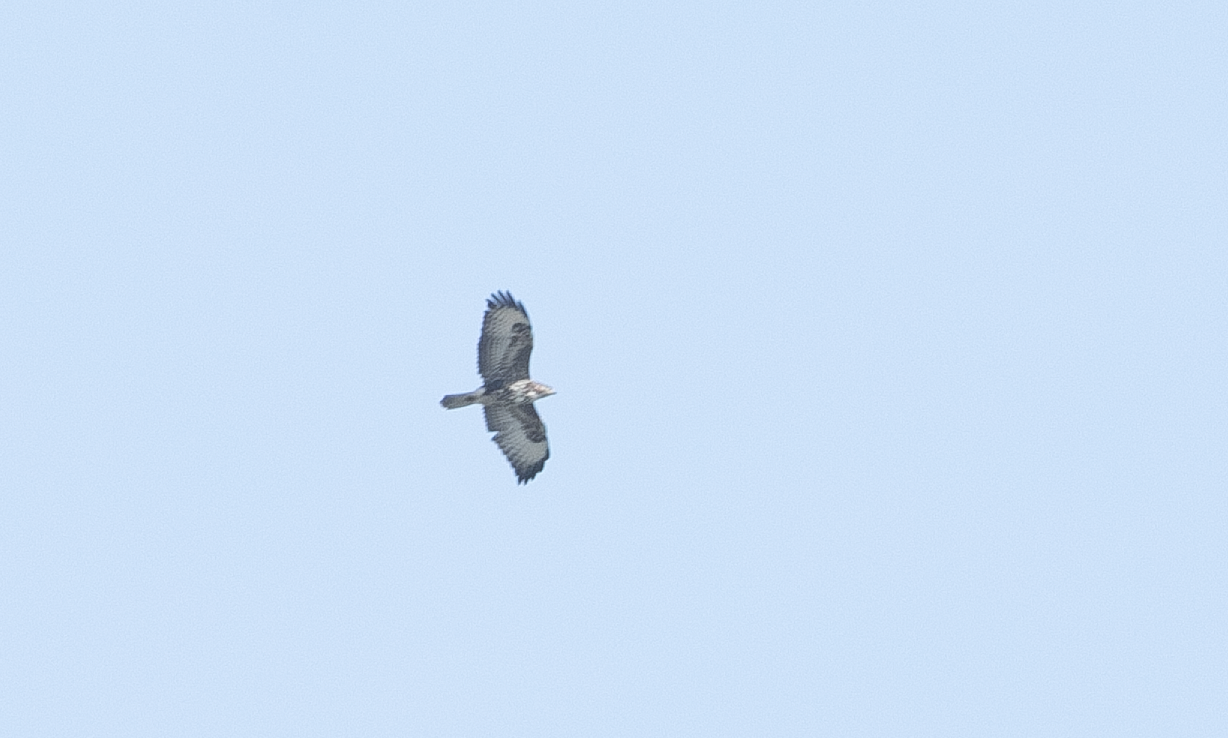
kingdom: Animalia
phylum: Chordata
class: Aves
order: Accipitriformes
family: Accipitridae
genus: Buteo
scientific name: Buteo buteo
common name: Common buzzard
